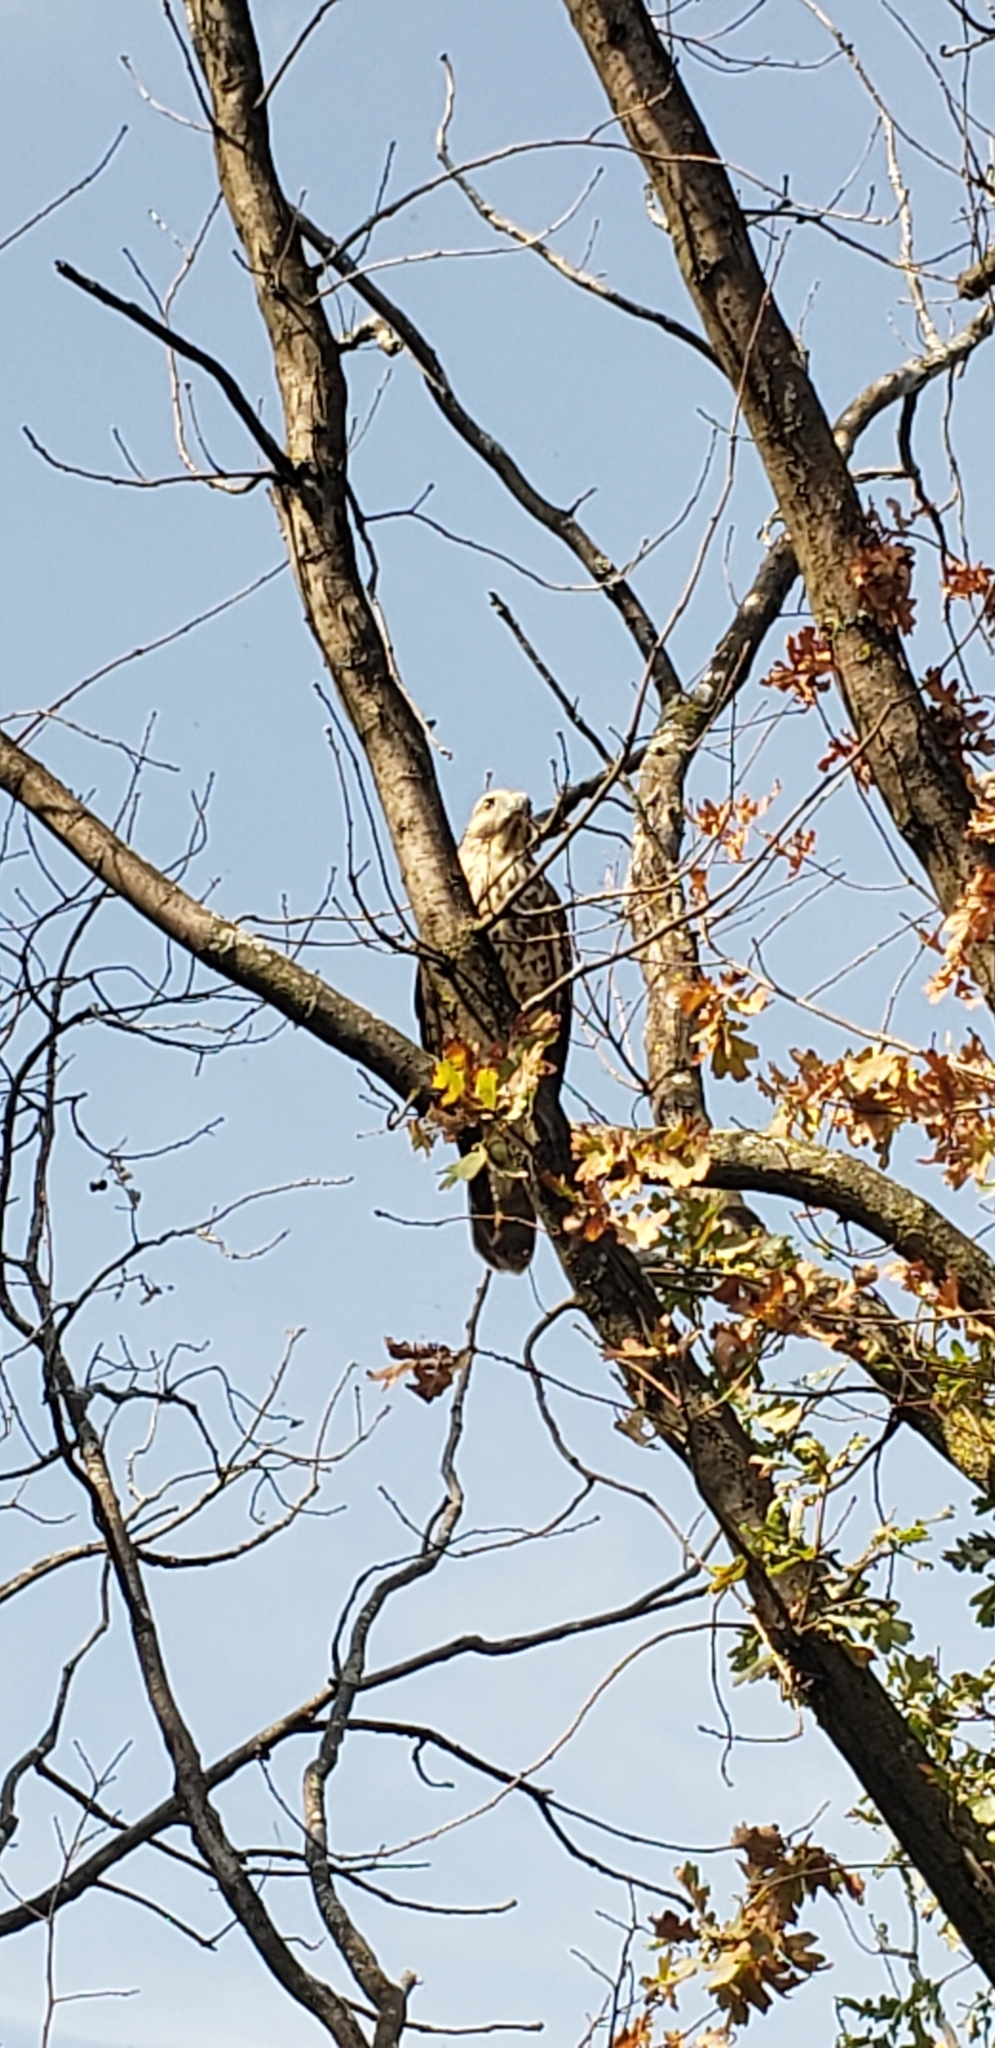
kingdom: Animalia
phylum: Chordata
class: Aves
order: Accipitriformes
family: Accipitridae
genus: Buteo
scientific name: Buteo lineatus
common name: Red-shouldered hawk
